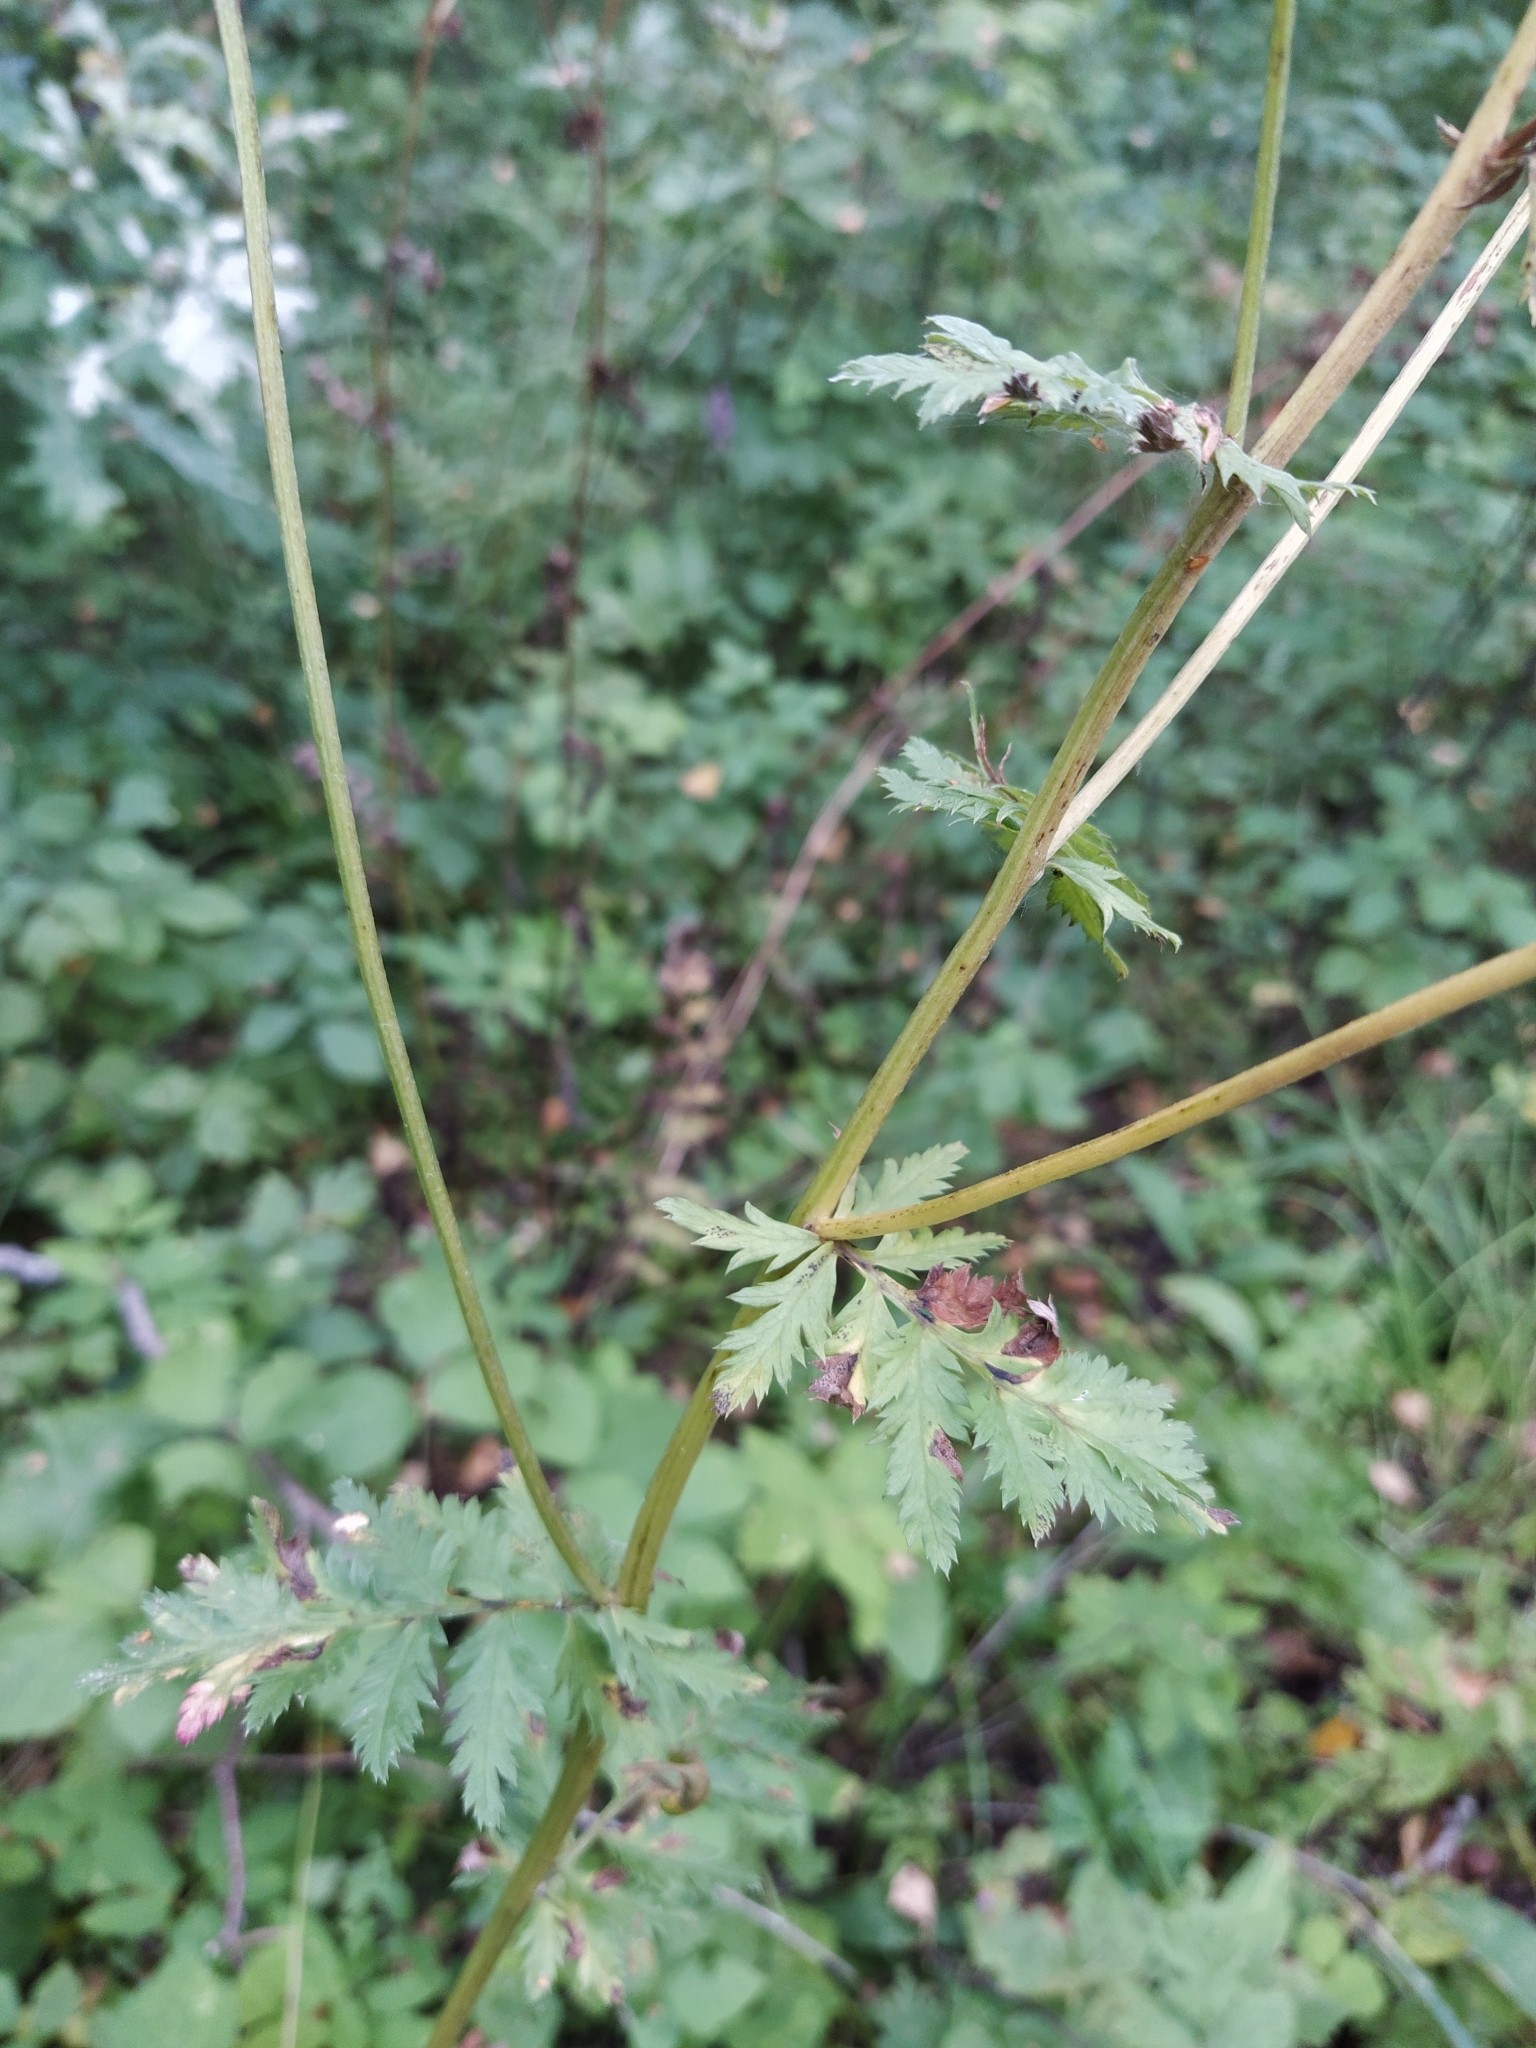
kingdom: Plantae
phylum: Tracheophyta
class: Magnoliopsida
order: Asterales
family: Asteraceae
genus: Tanacetum
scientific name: Tanacetum corymbosum
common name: Scentless feverfew
